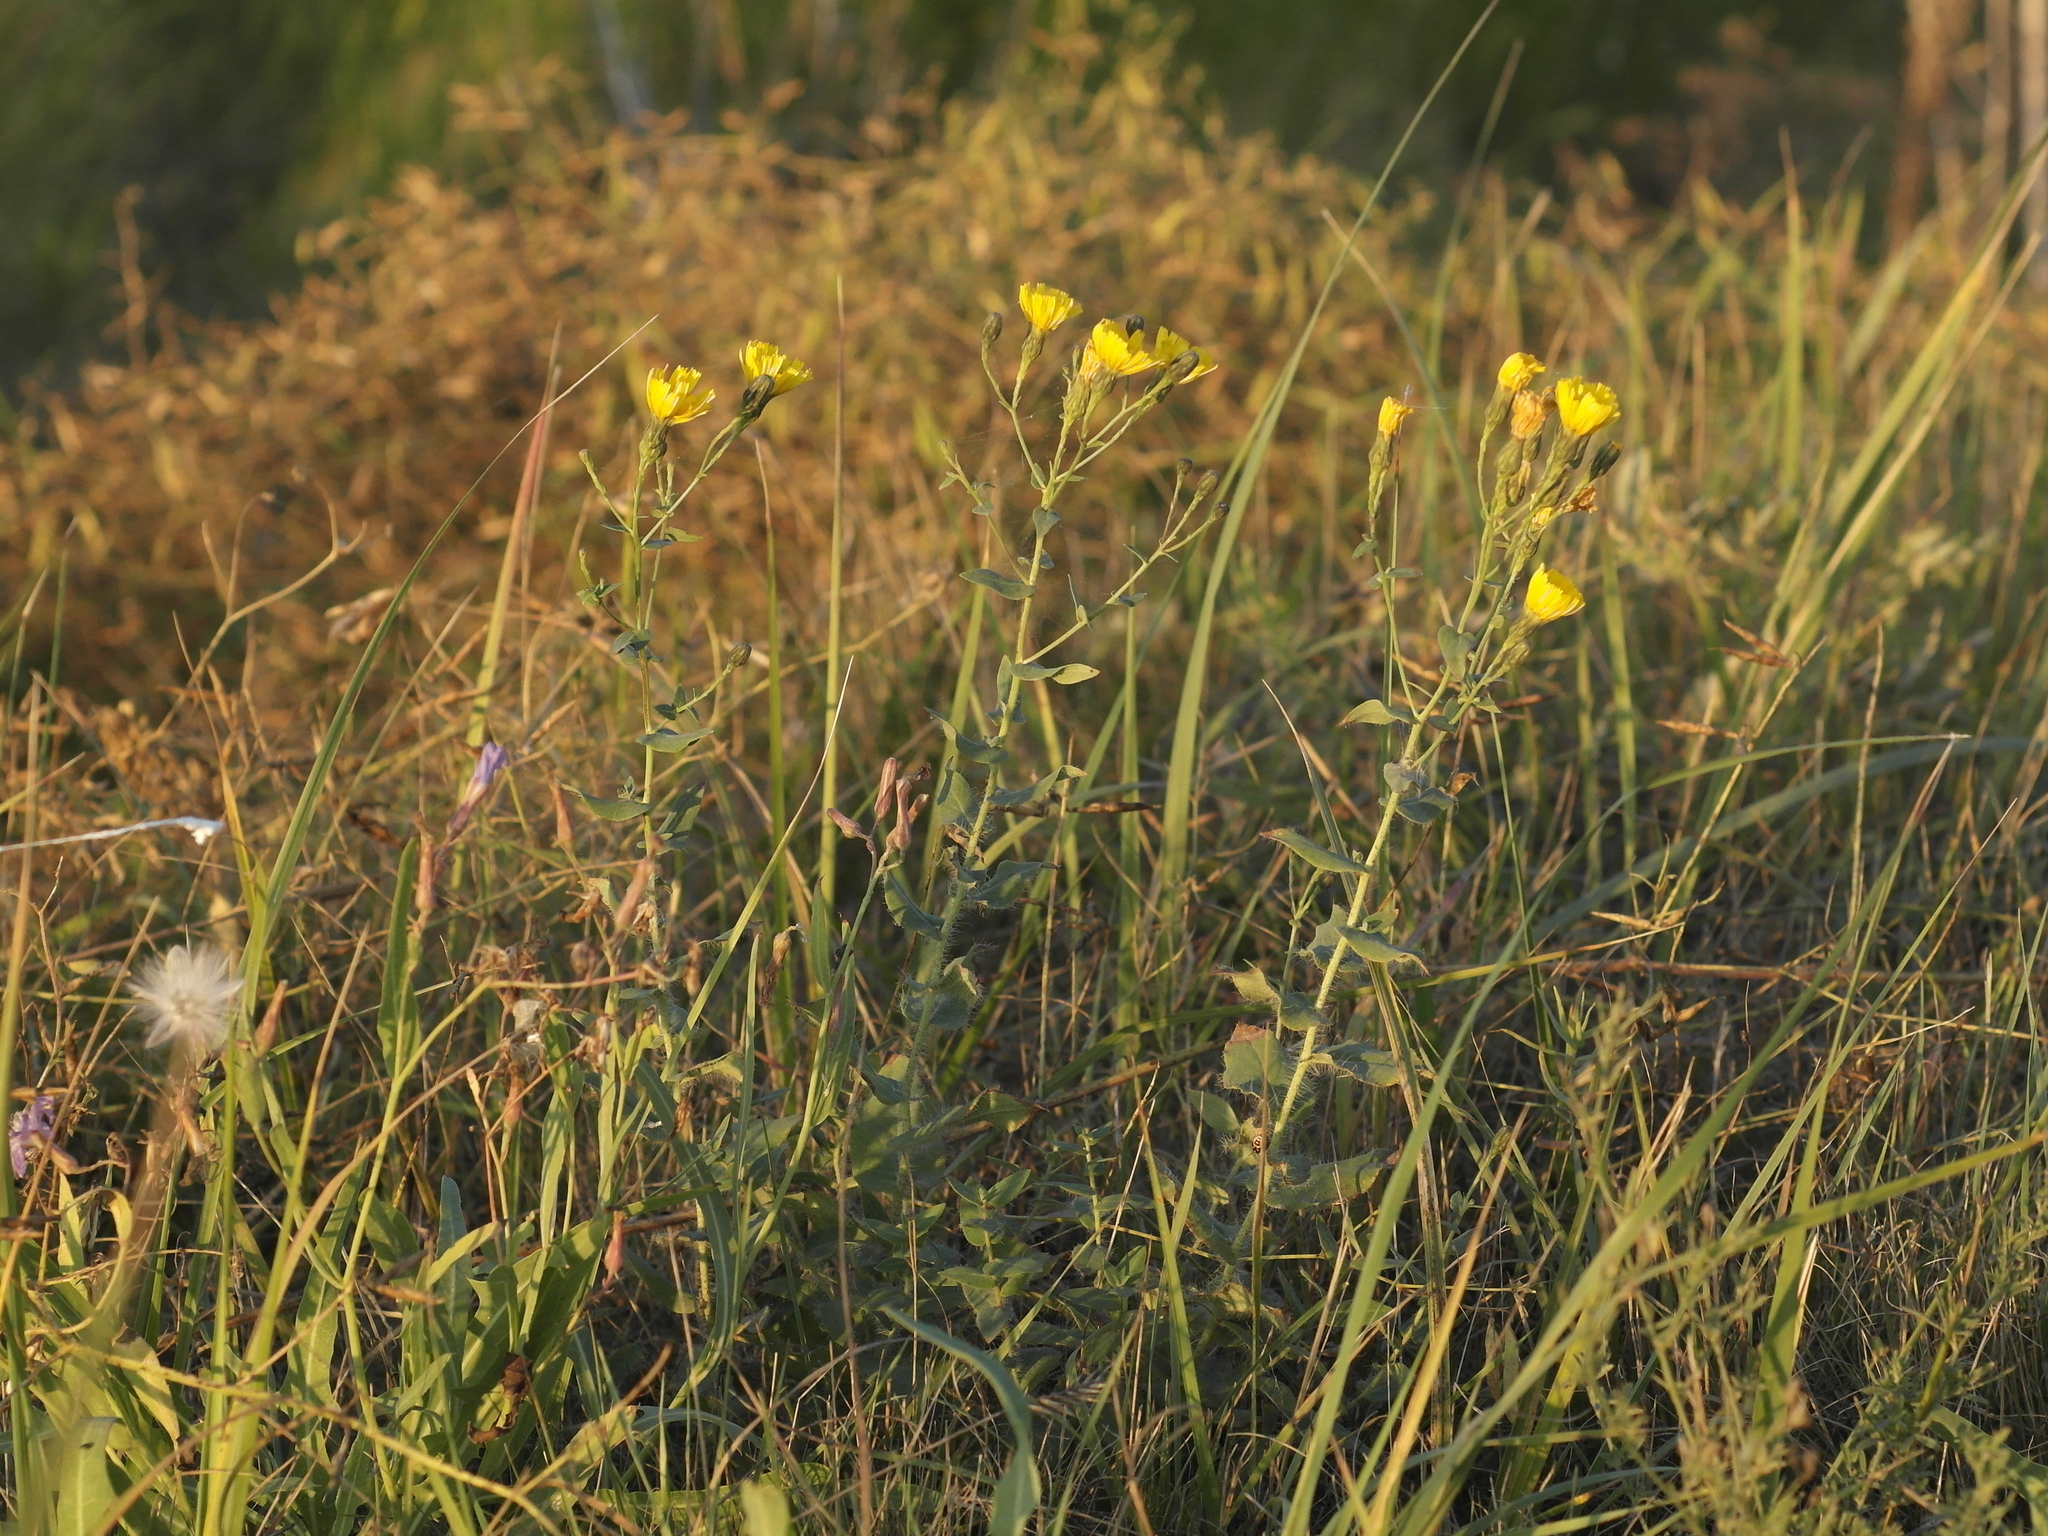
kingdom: Plantae
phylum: Tracheophyta
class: Magnoliopsida
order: Asterales
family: Asteraceae
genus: Hieracium
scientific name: Hieracium robustum
